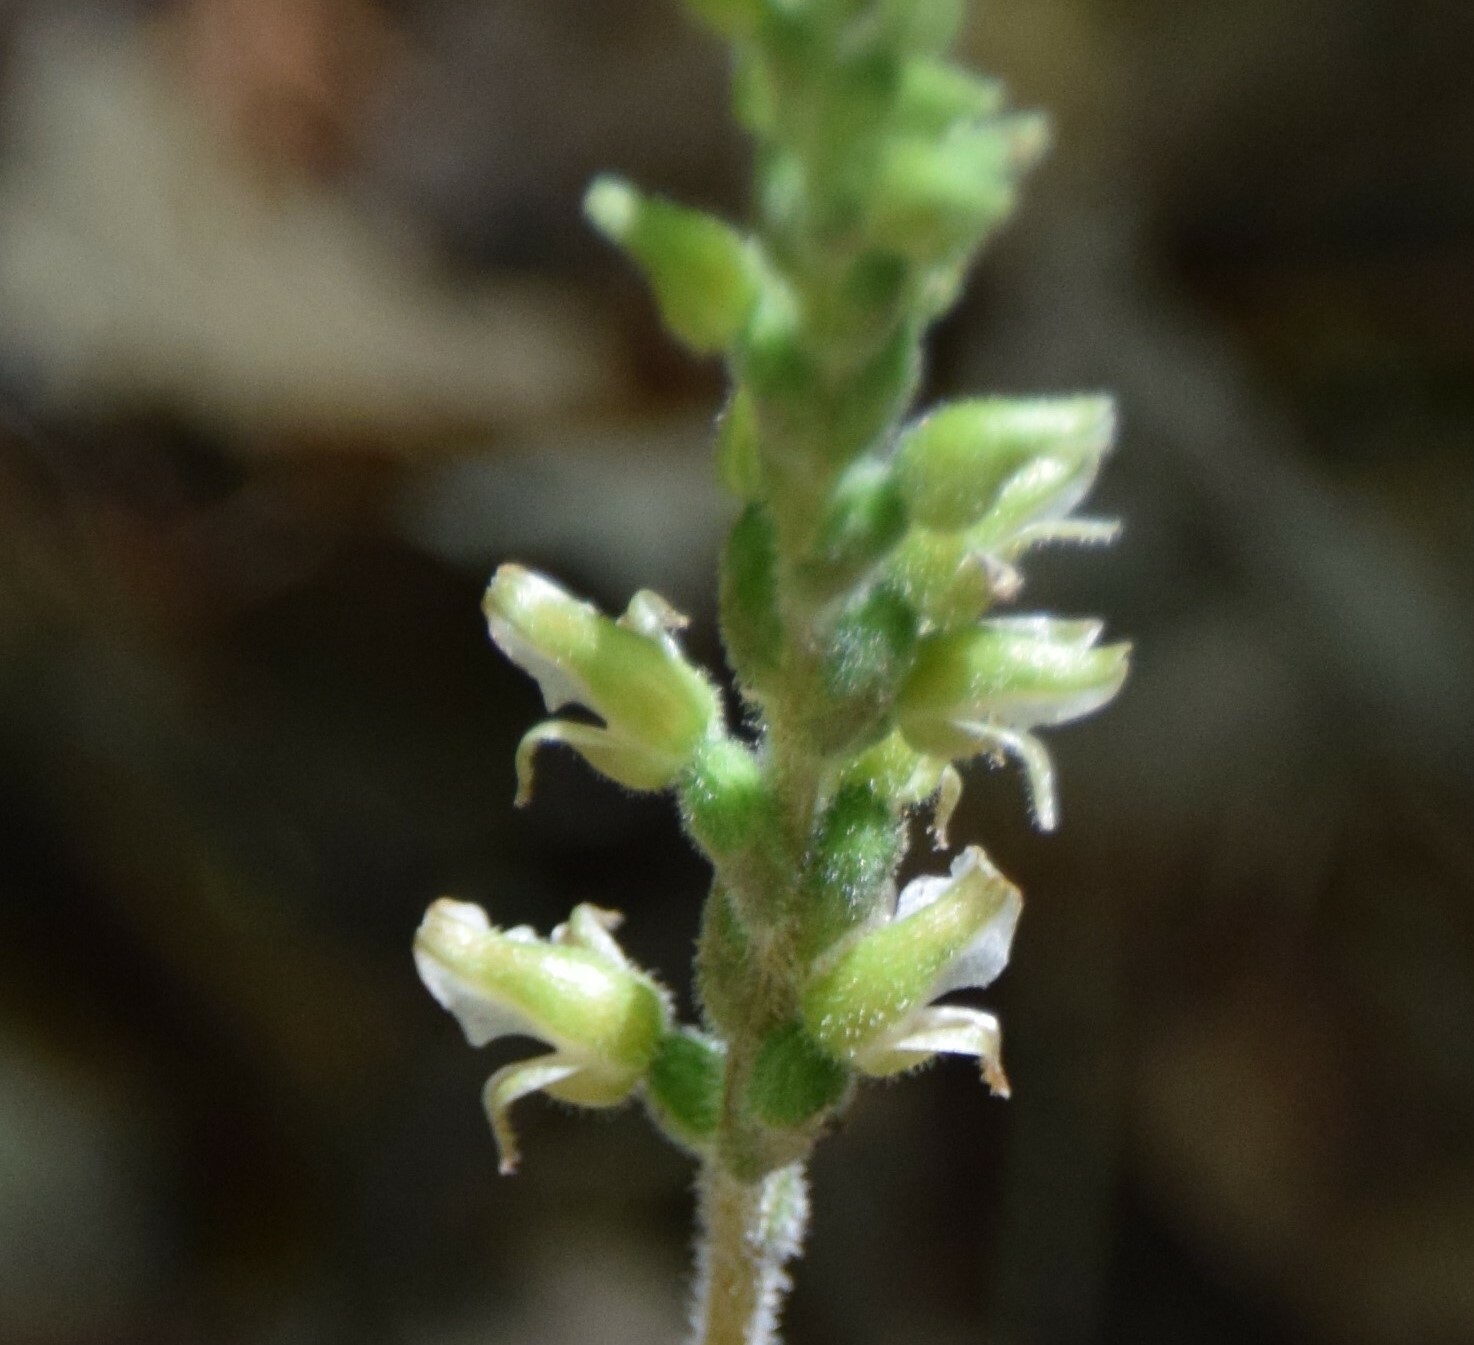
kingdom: Plantae
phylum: Tracheophyta
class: Liliopsida
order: Asparagales
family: Orchidaceae
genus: Goodyera
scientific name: Goodyera oblongifolia
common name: Giant rattlesnake-plantain
